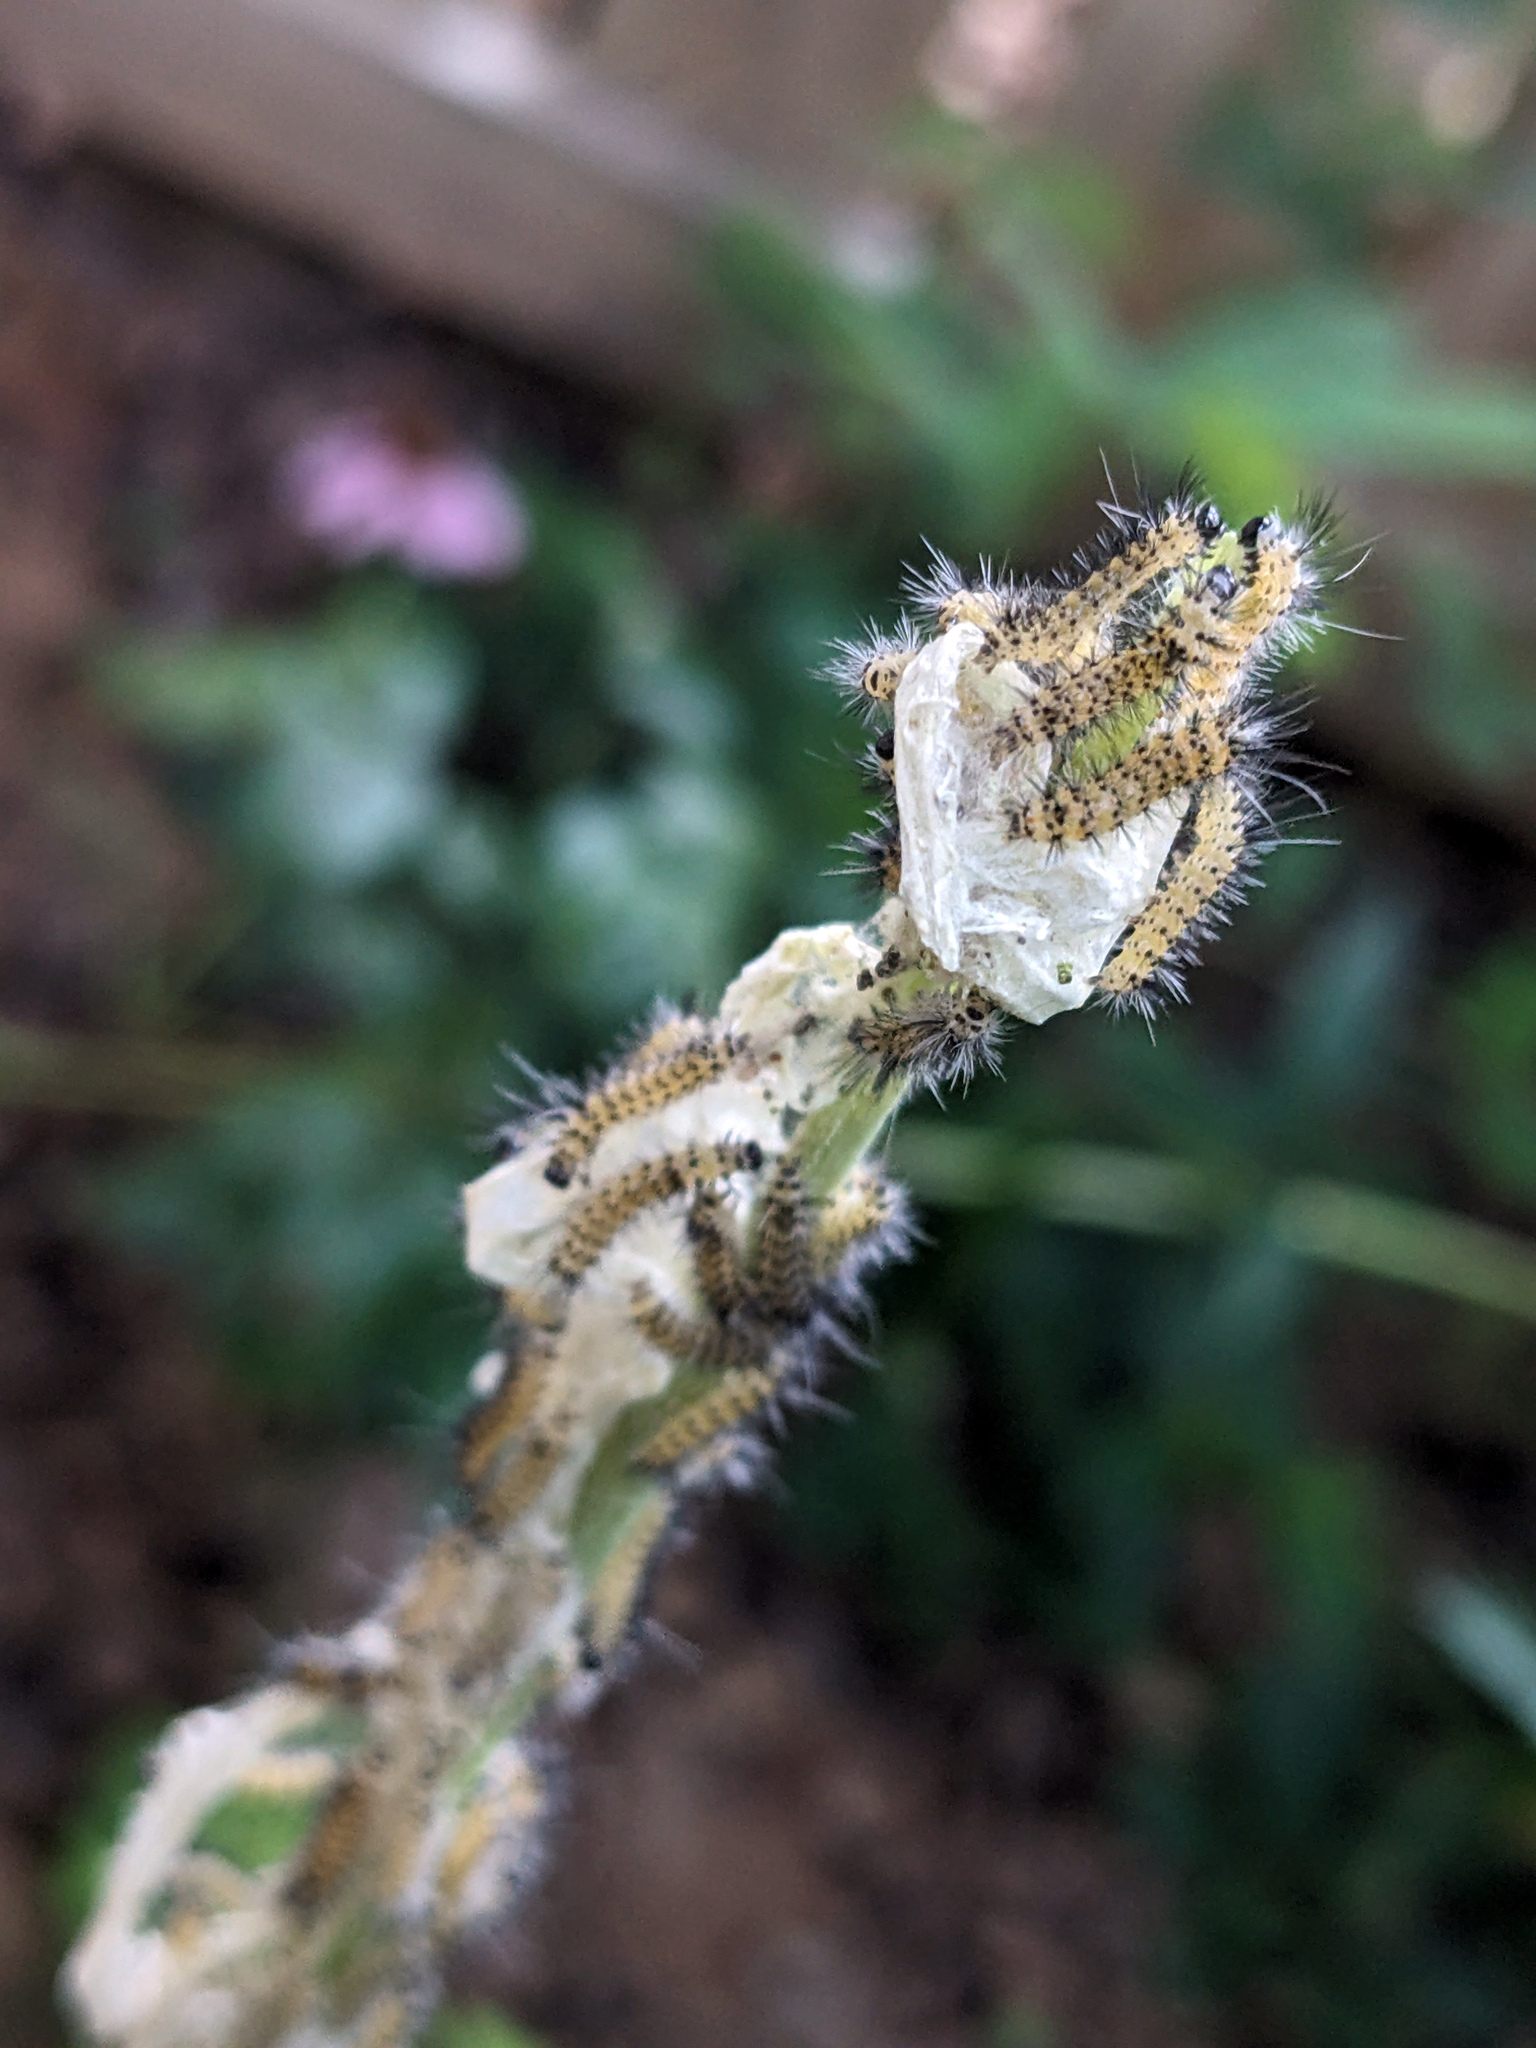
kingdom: Animalia
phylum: Arthropoda
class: Insecta
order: Lepidoptera
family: Erebidae
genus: Euchaetes
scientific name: Euchaetes egle
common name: Milkweed tussock moth
